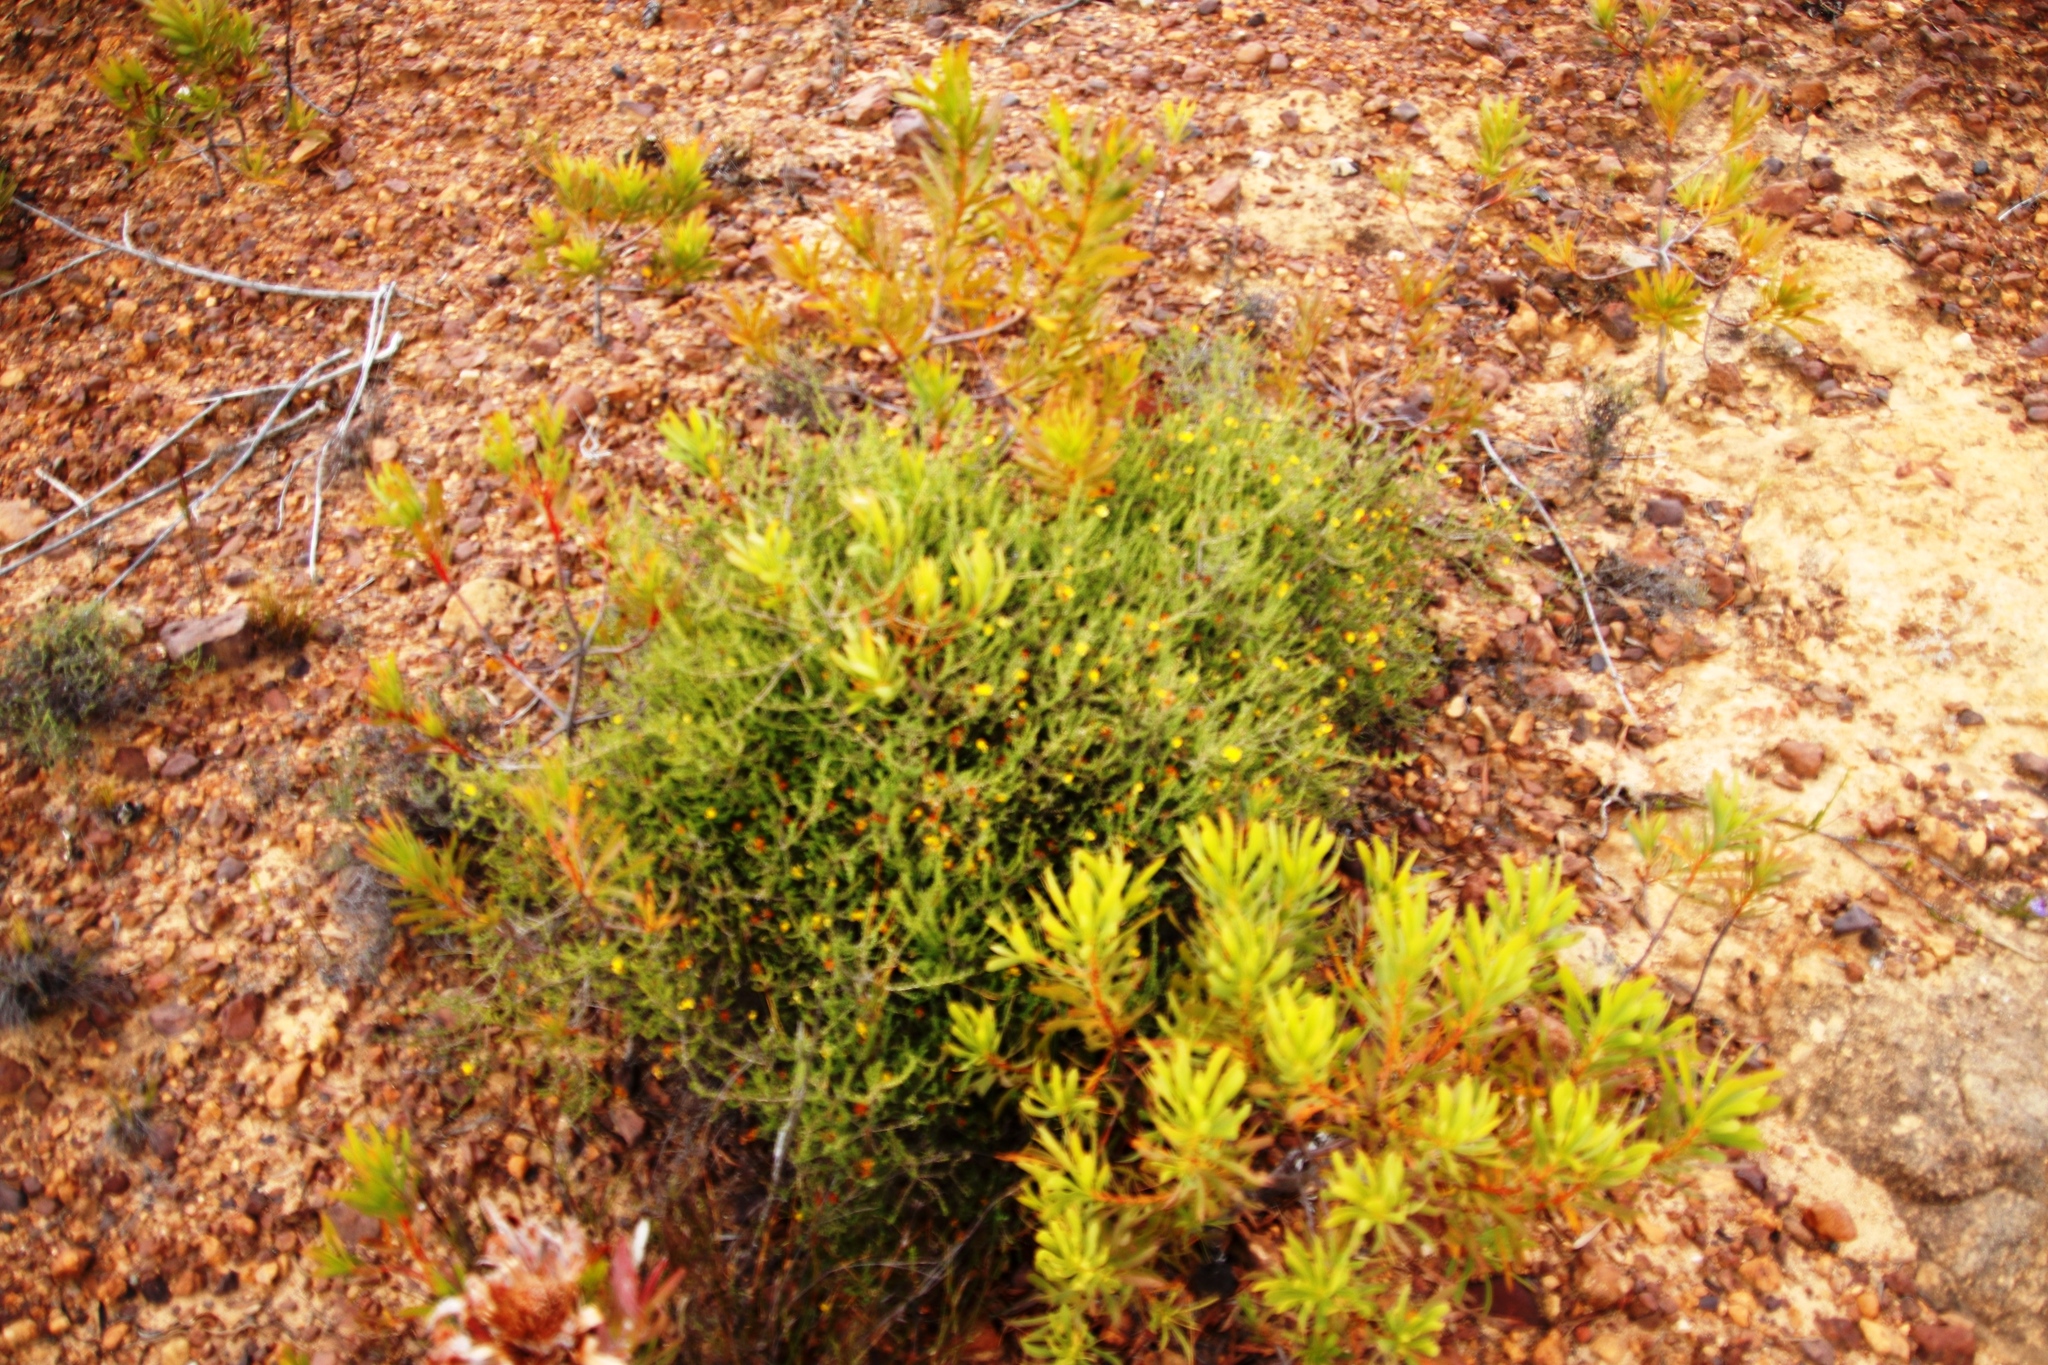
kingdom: Plantae
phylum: Tracheophyta
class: Magnoliopsida
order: Proteales
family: Proteaceae
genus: Protea
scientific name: Protea repens
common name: Sugarbush
